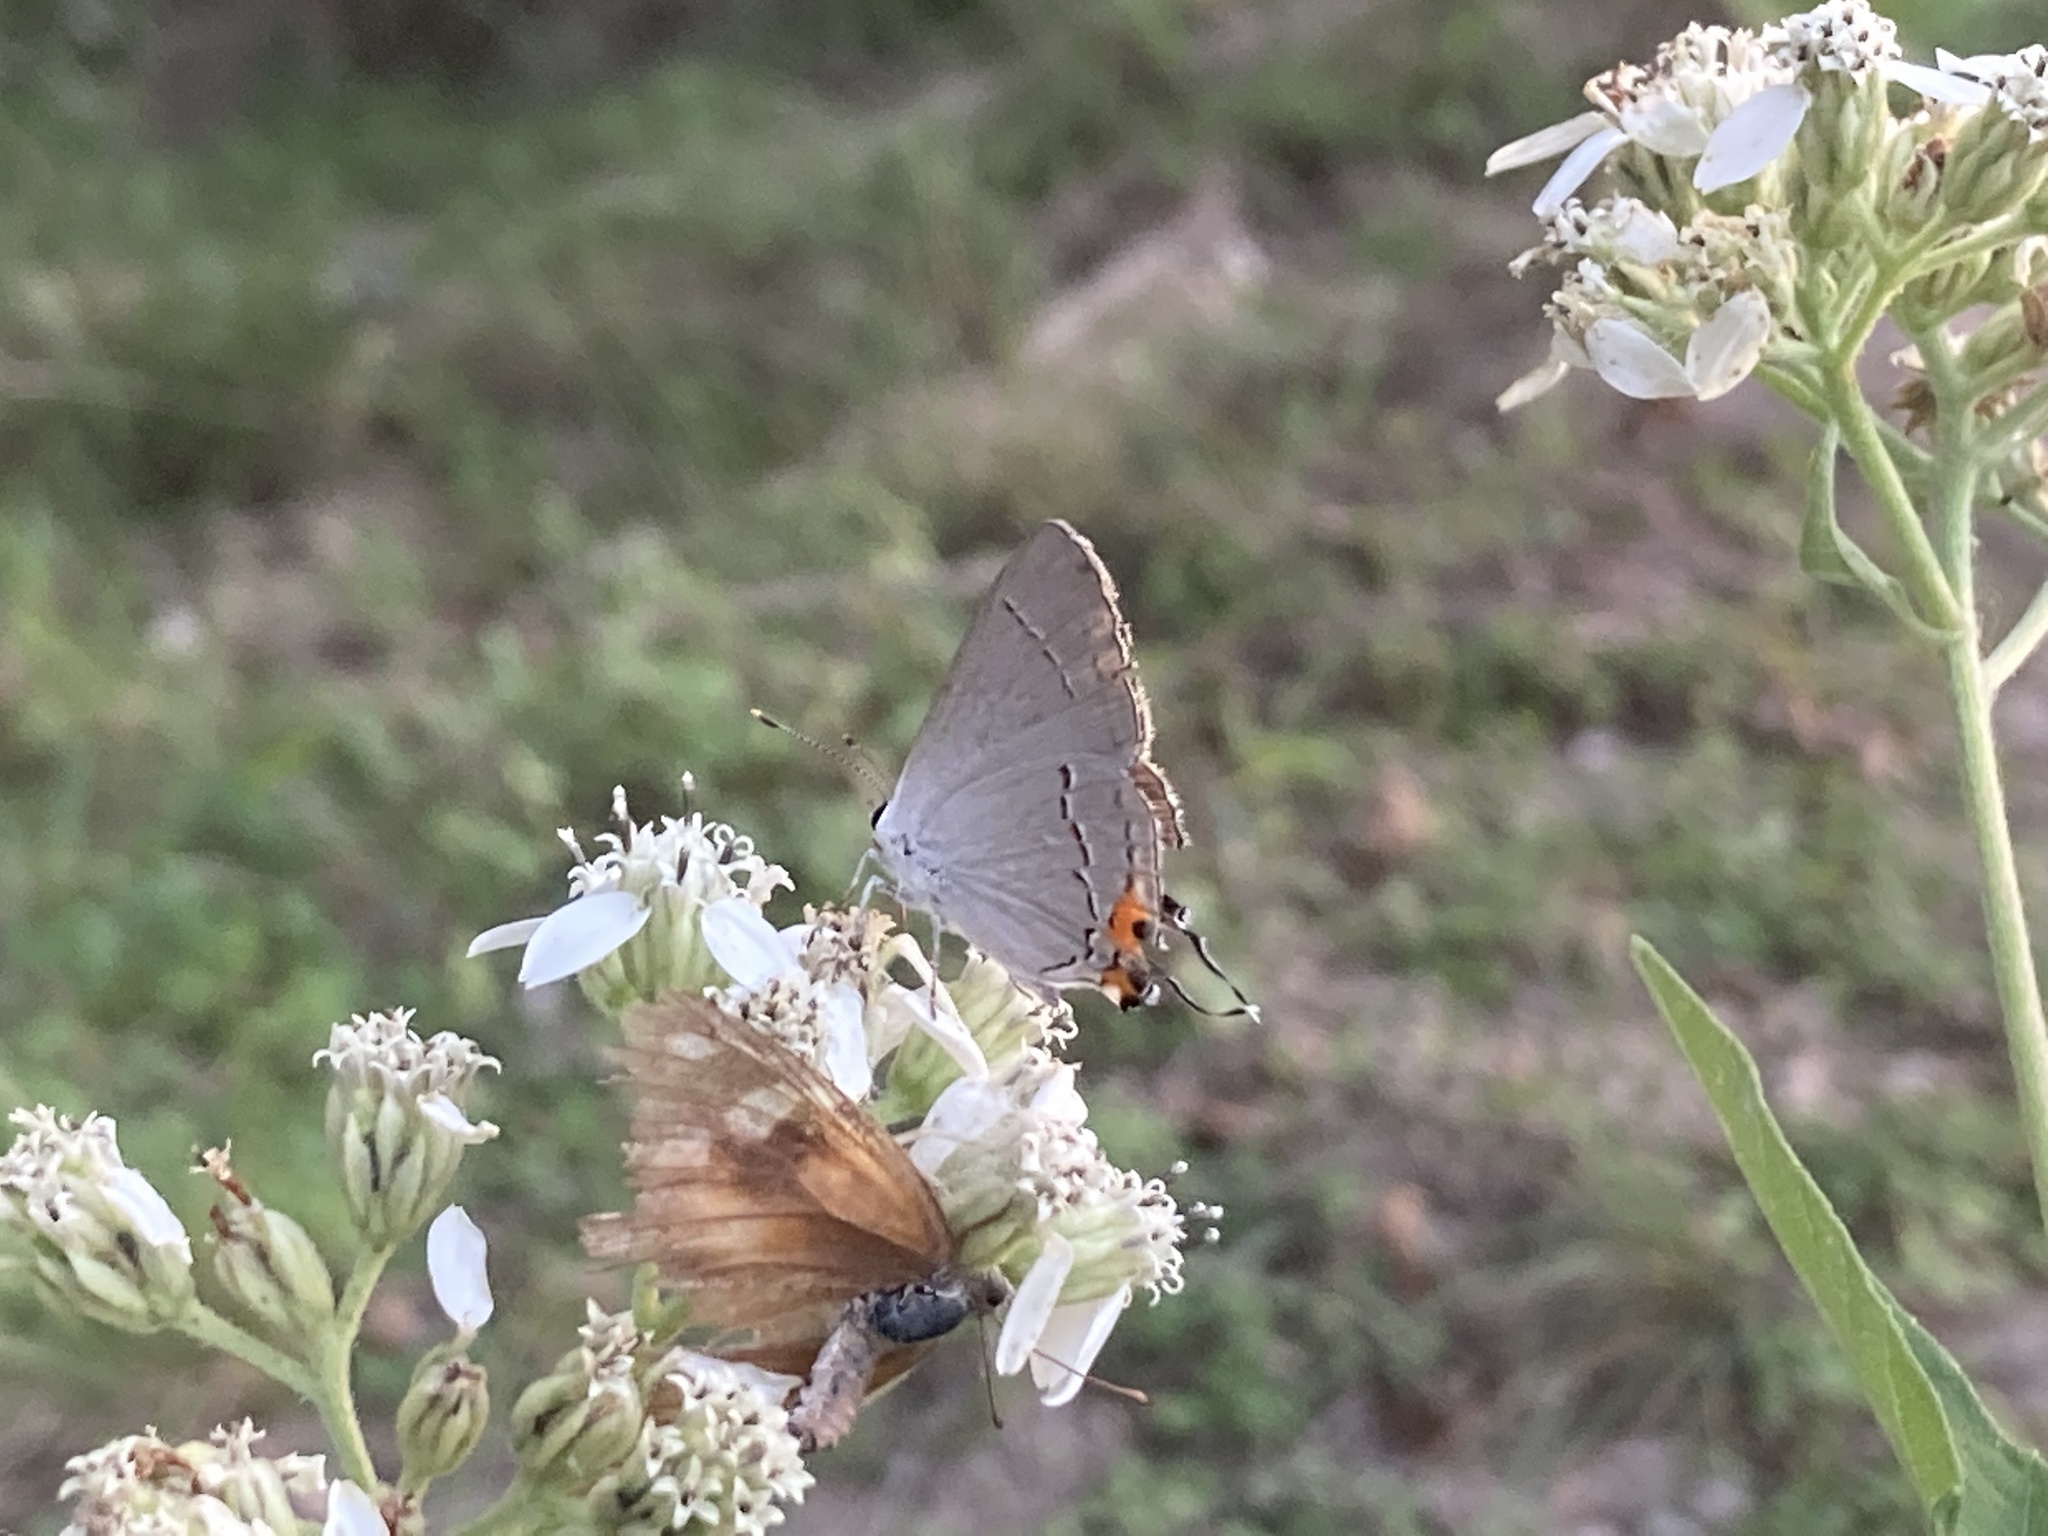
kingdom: Animalia
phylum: Arthropoda
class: Insecta
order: Lepidoptera
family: Lycaenidae
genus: Strymon
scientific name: Strymon melinus
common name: Gray hairstreak
